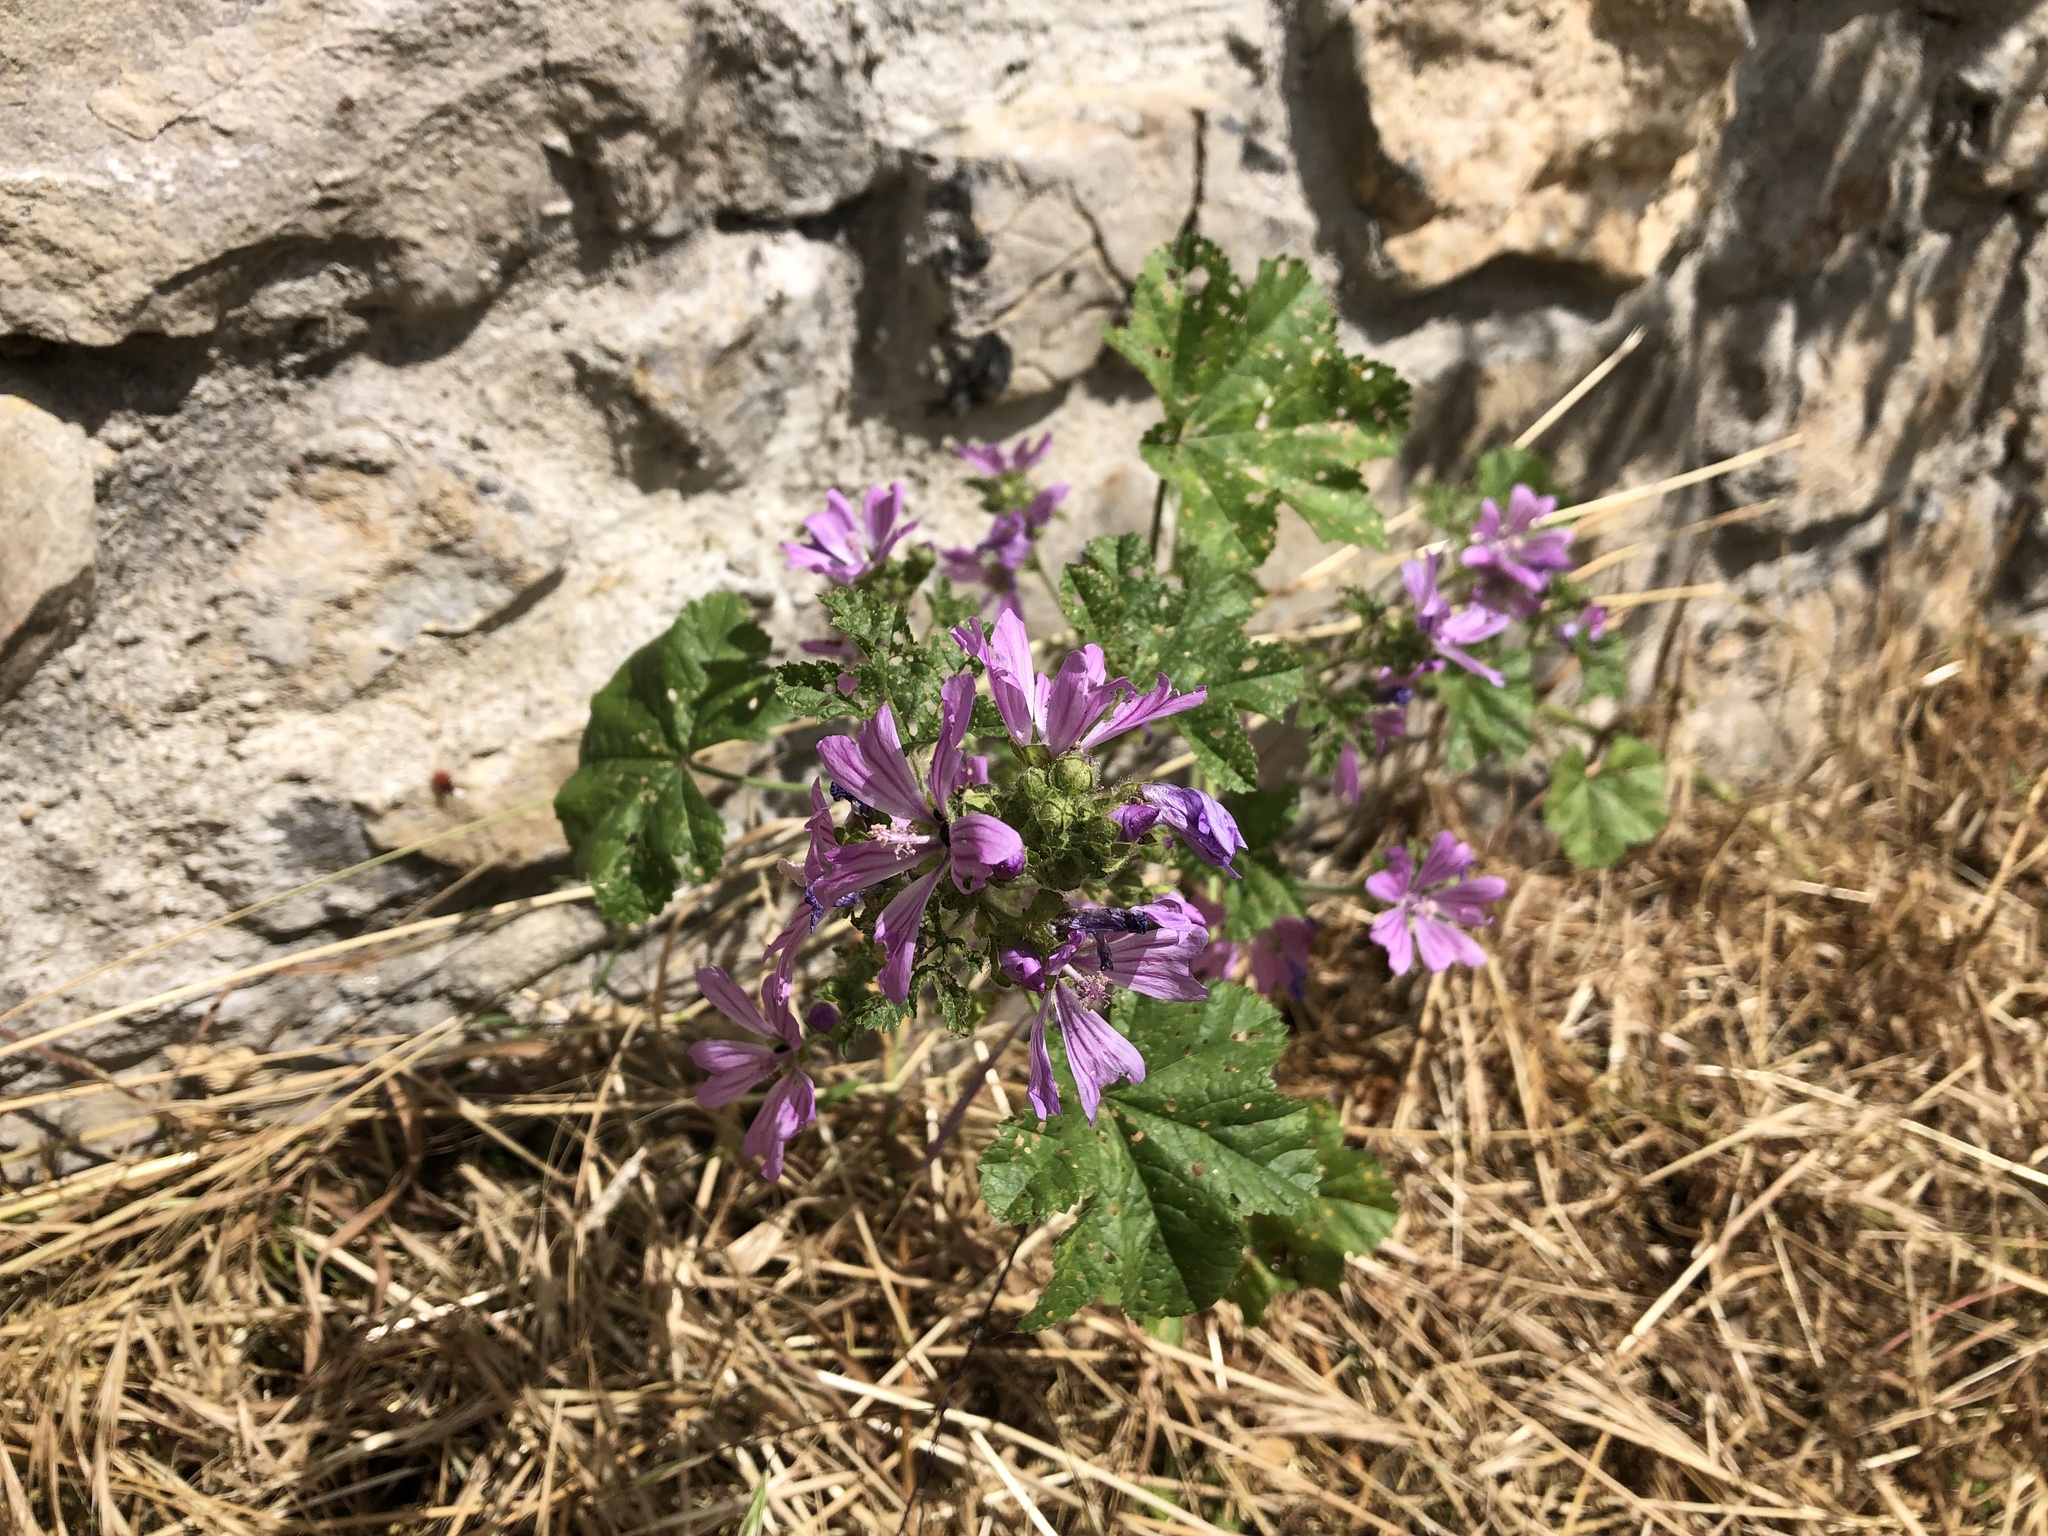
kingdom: Plantae
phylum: Tracheophyta
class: Magnoliopsida
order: Malvales
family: Malvaceae
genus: Malva
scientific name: Malva sylvestris
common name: Common mallow
